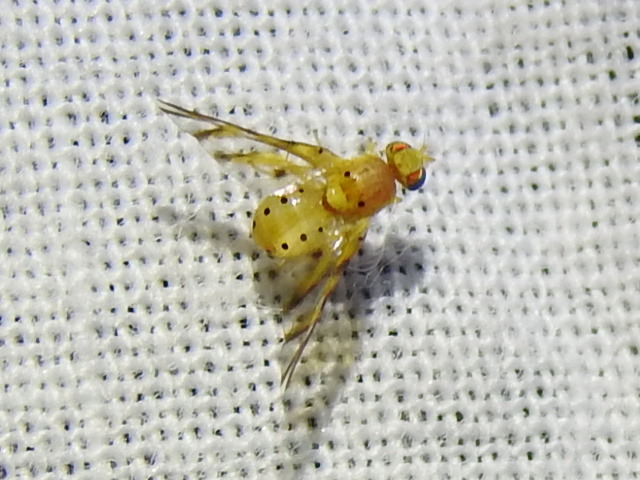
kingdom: Animalia
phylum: Arthropoda
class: Insecta
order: Diptera
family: Tephritidae
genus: Tomoplagia
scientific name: Tomoplagia obliqua
